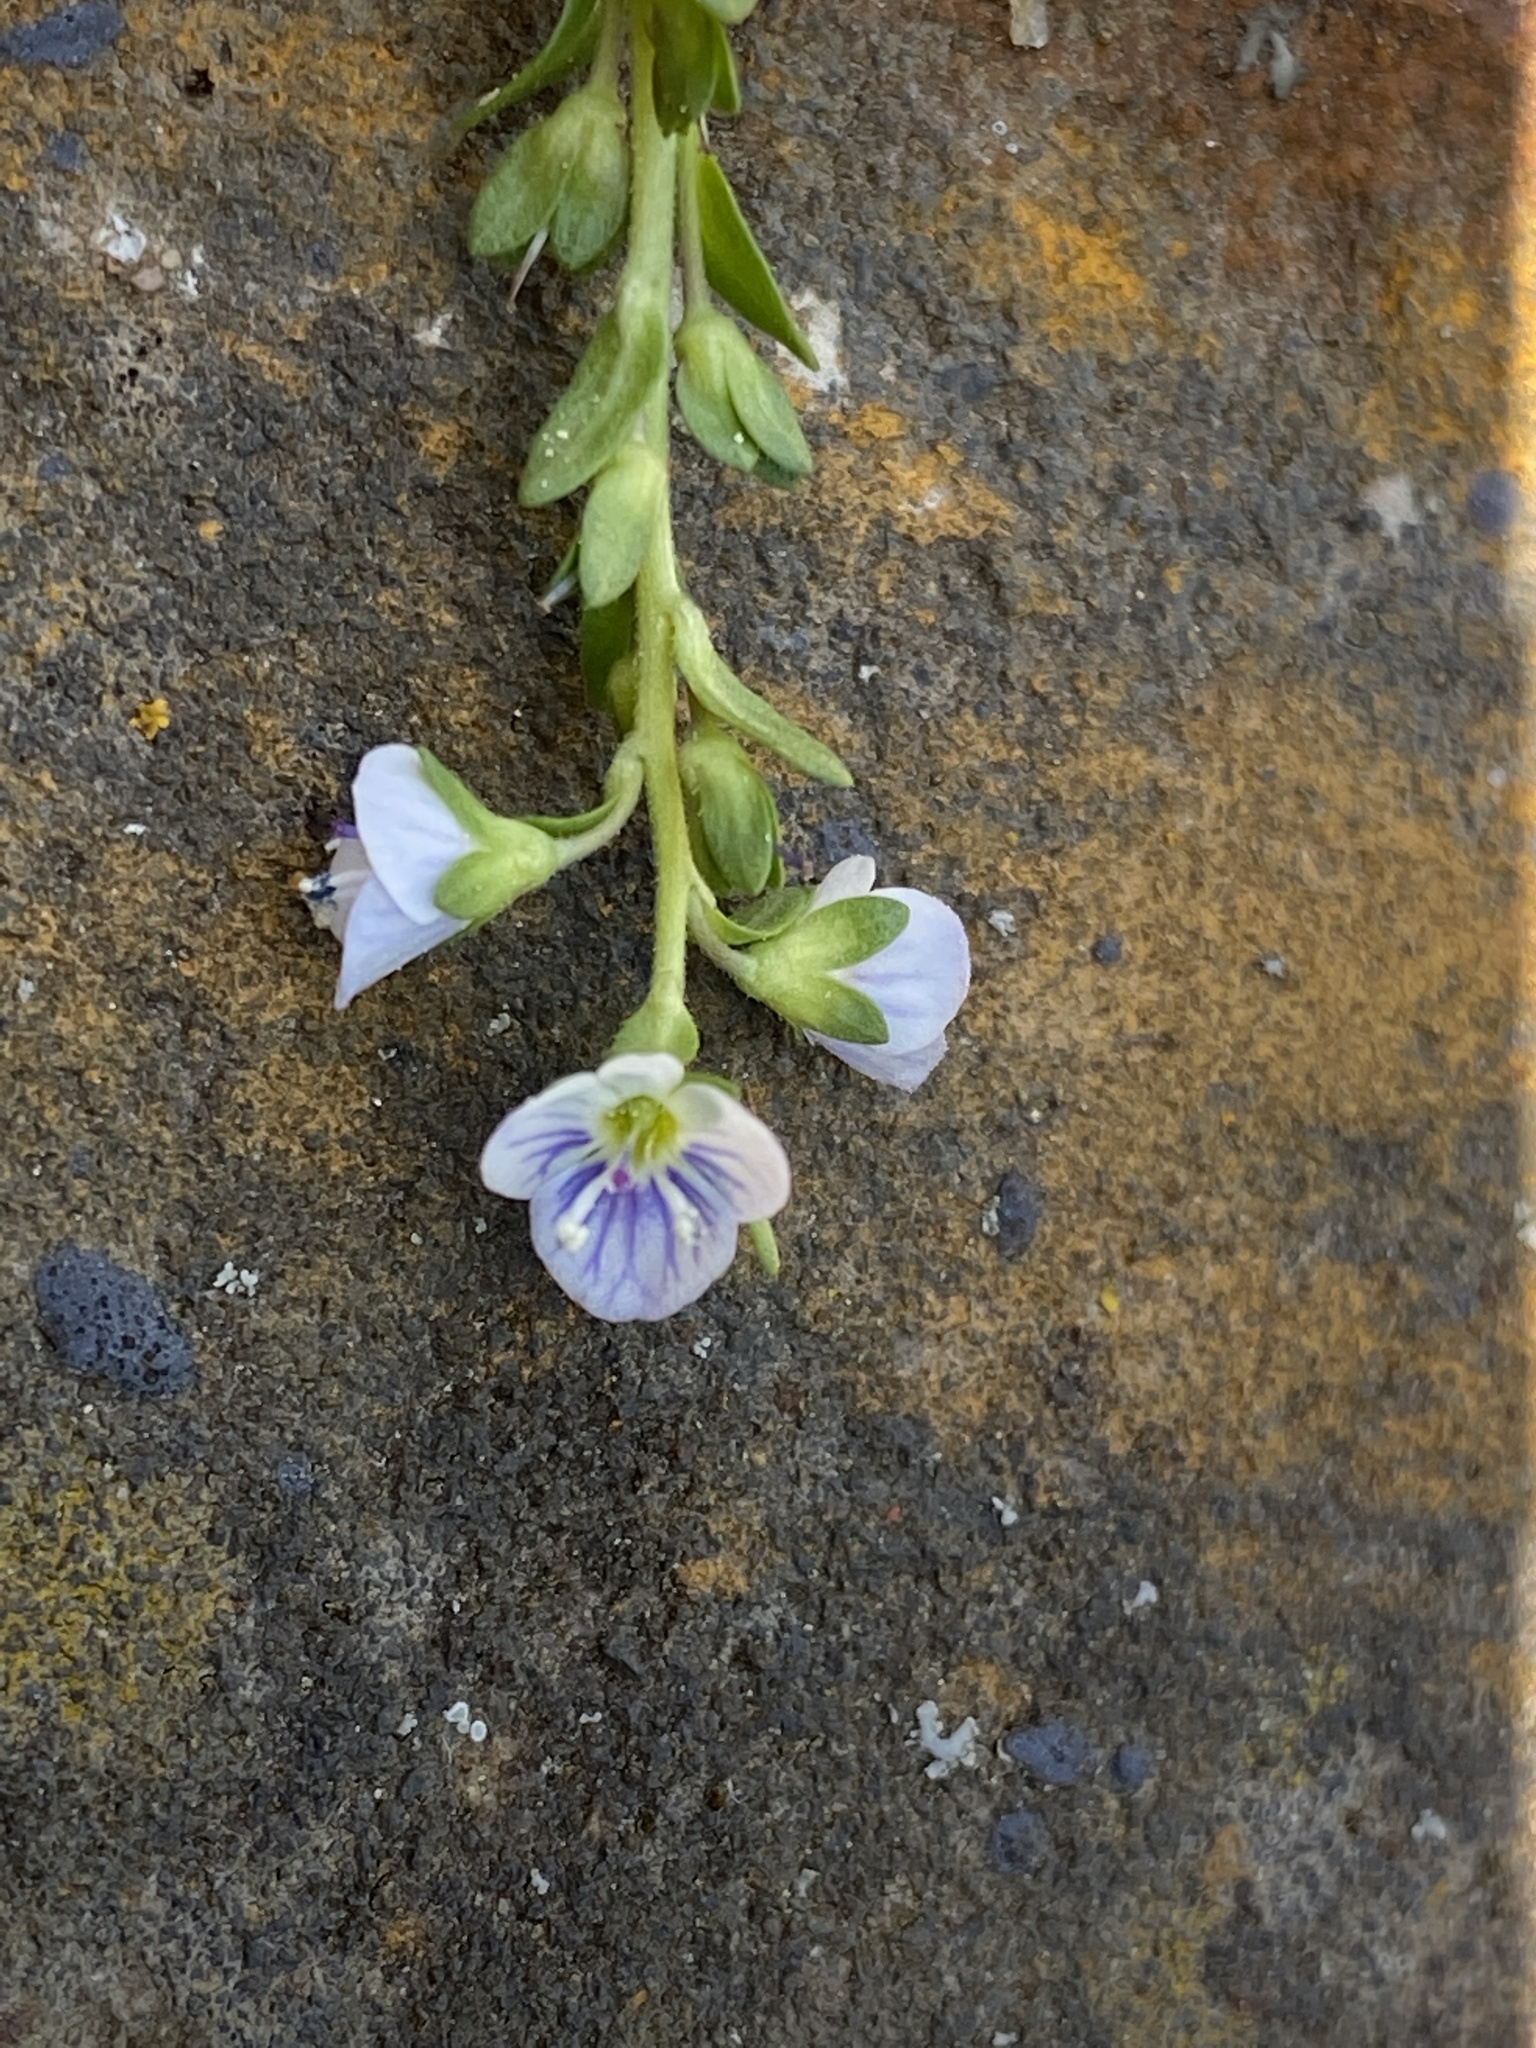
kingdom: Plantae
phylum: Tracheophyta
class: Magnoliopsida
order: Lamiales
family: Plantaginaceae
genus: Veronica
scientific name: Veronica serpyllifolia
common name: Thyme-leaved speedwell
